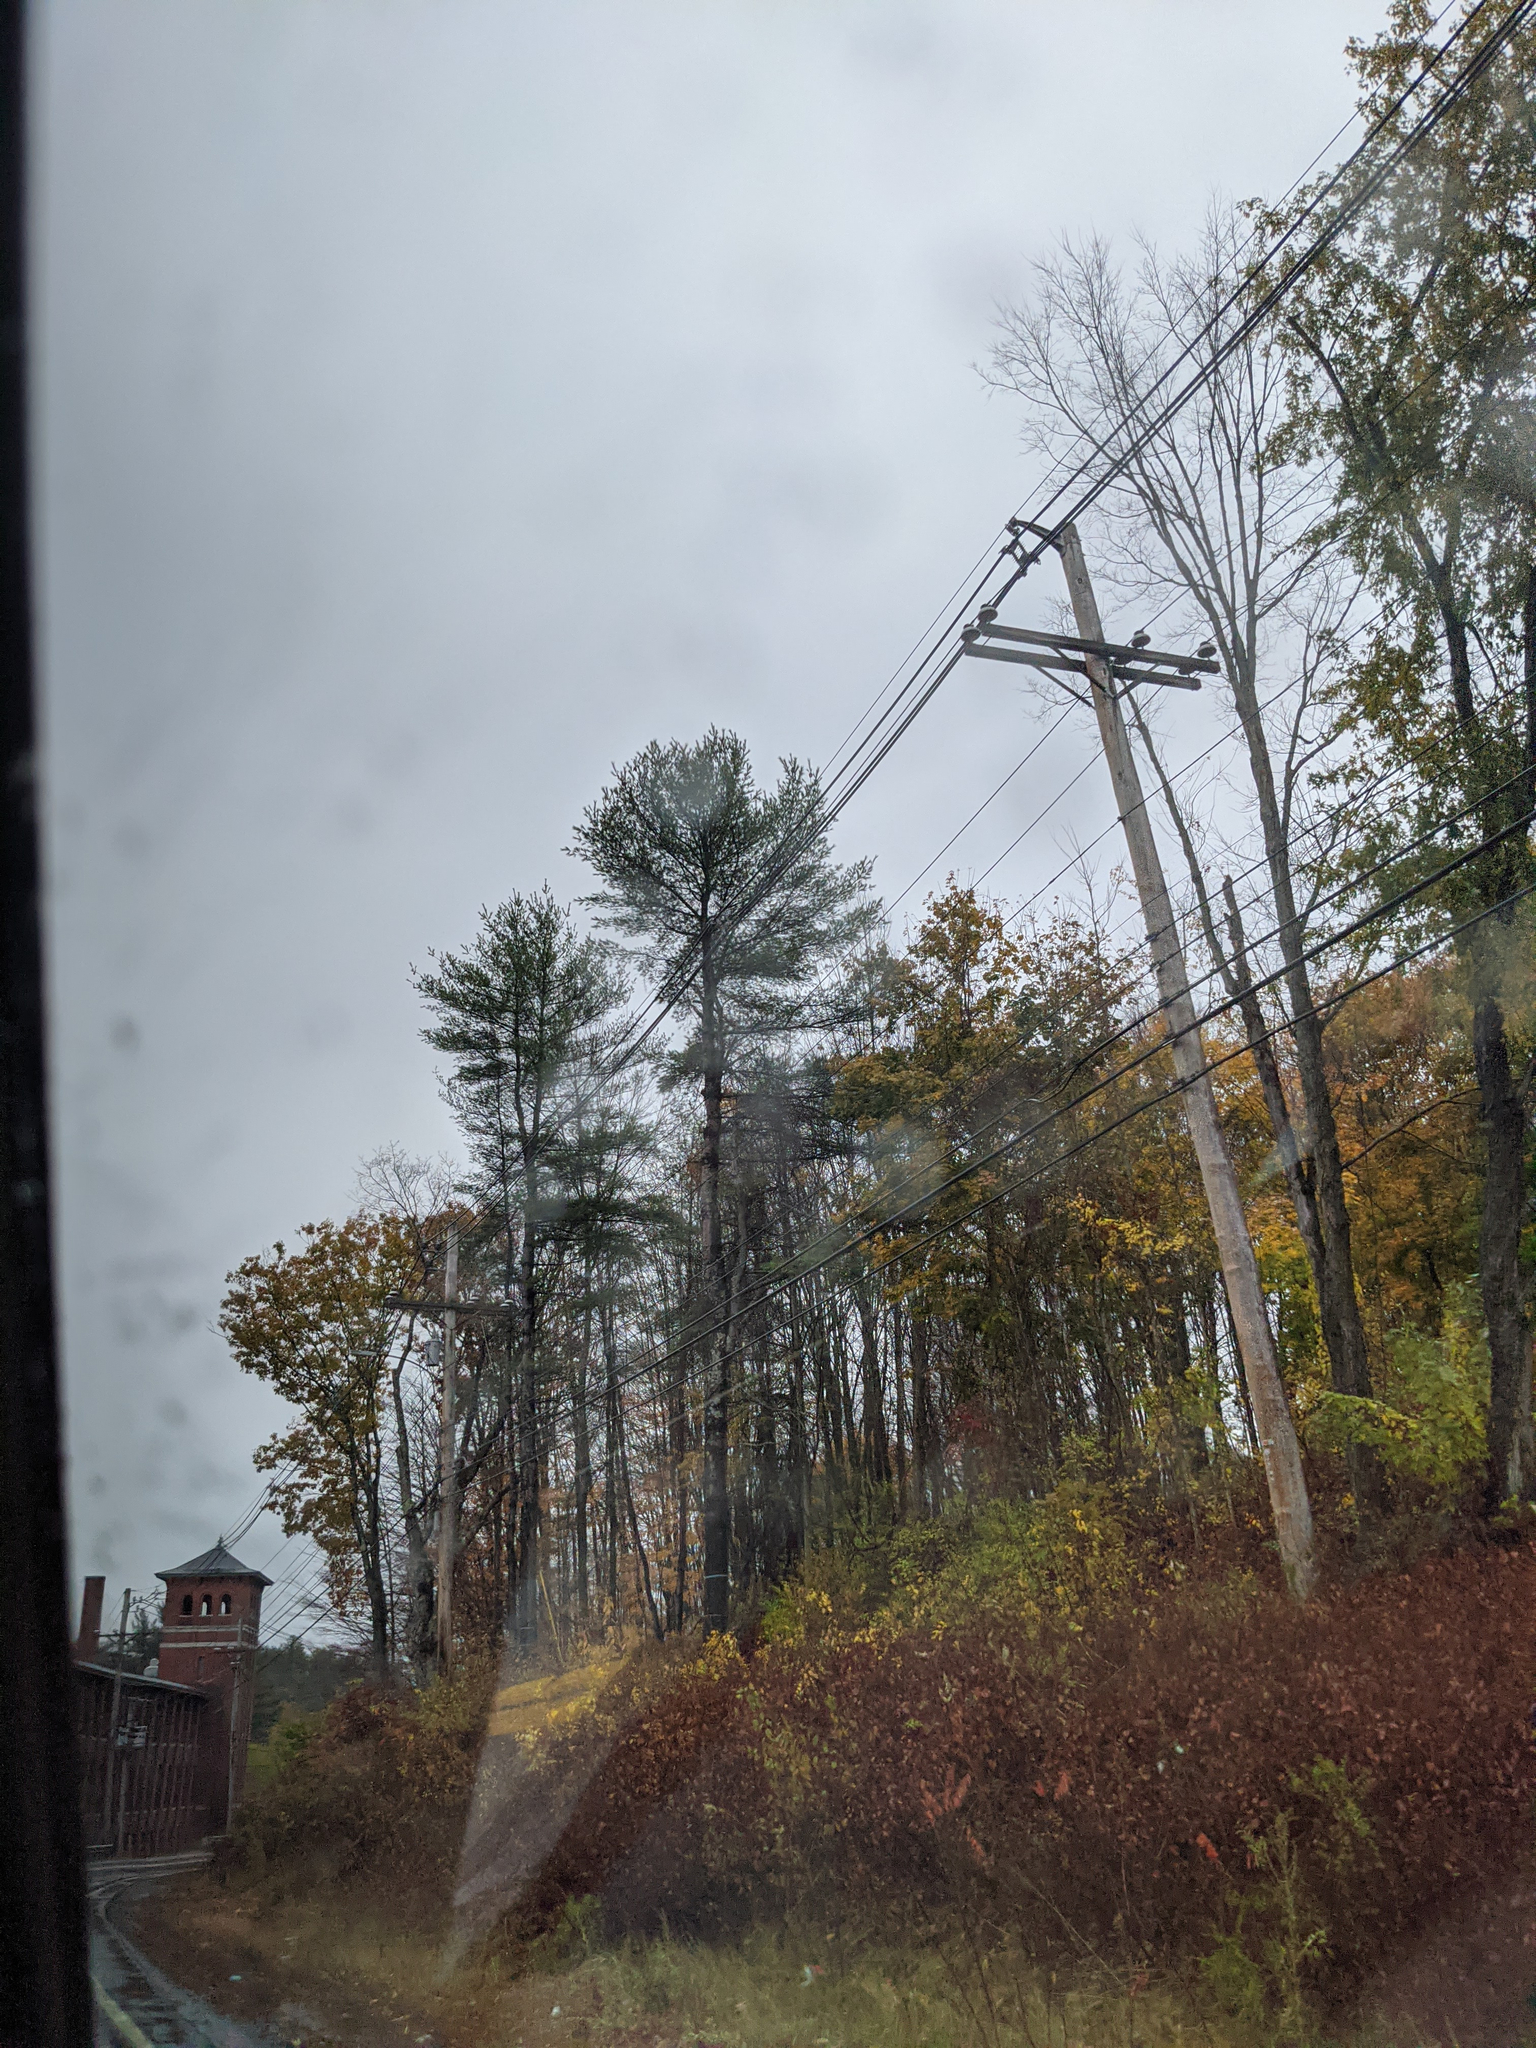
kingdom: Plantae
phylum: Tracheophyta
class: Pinopsida
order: Pinales
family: Pinaceae
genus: Pinus
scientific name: Pinus strobus
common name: Weymouth pine
